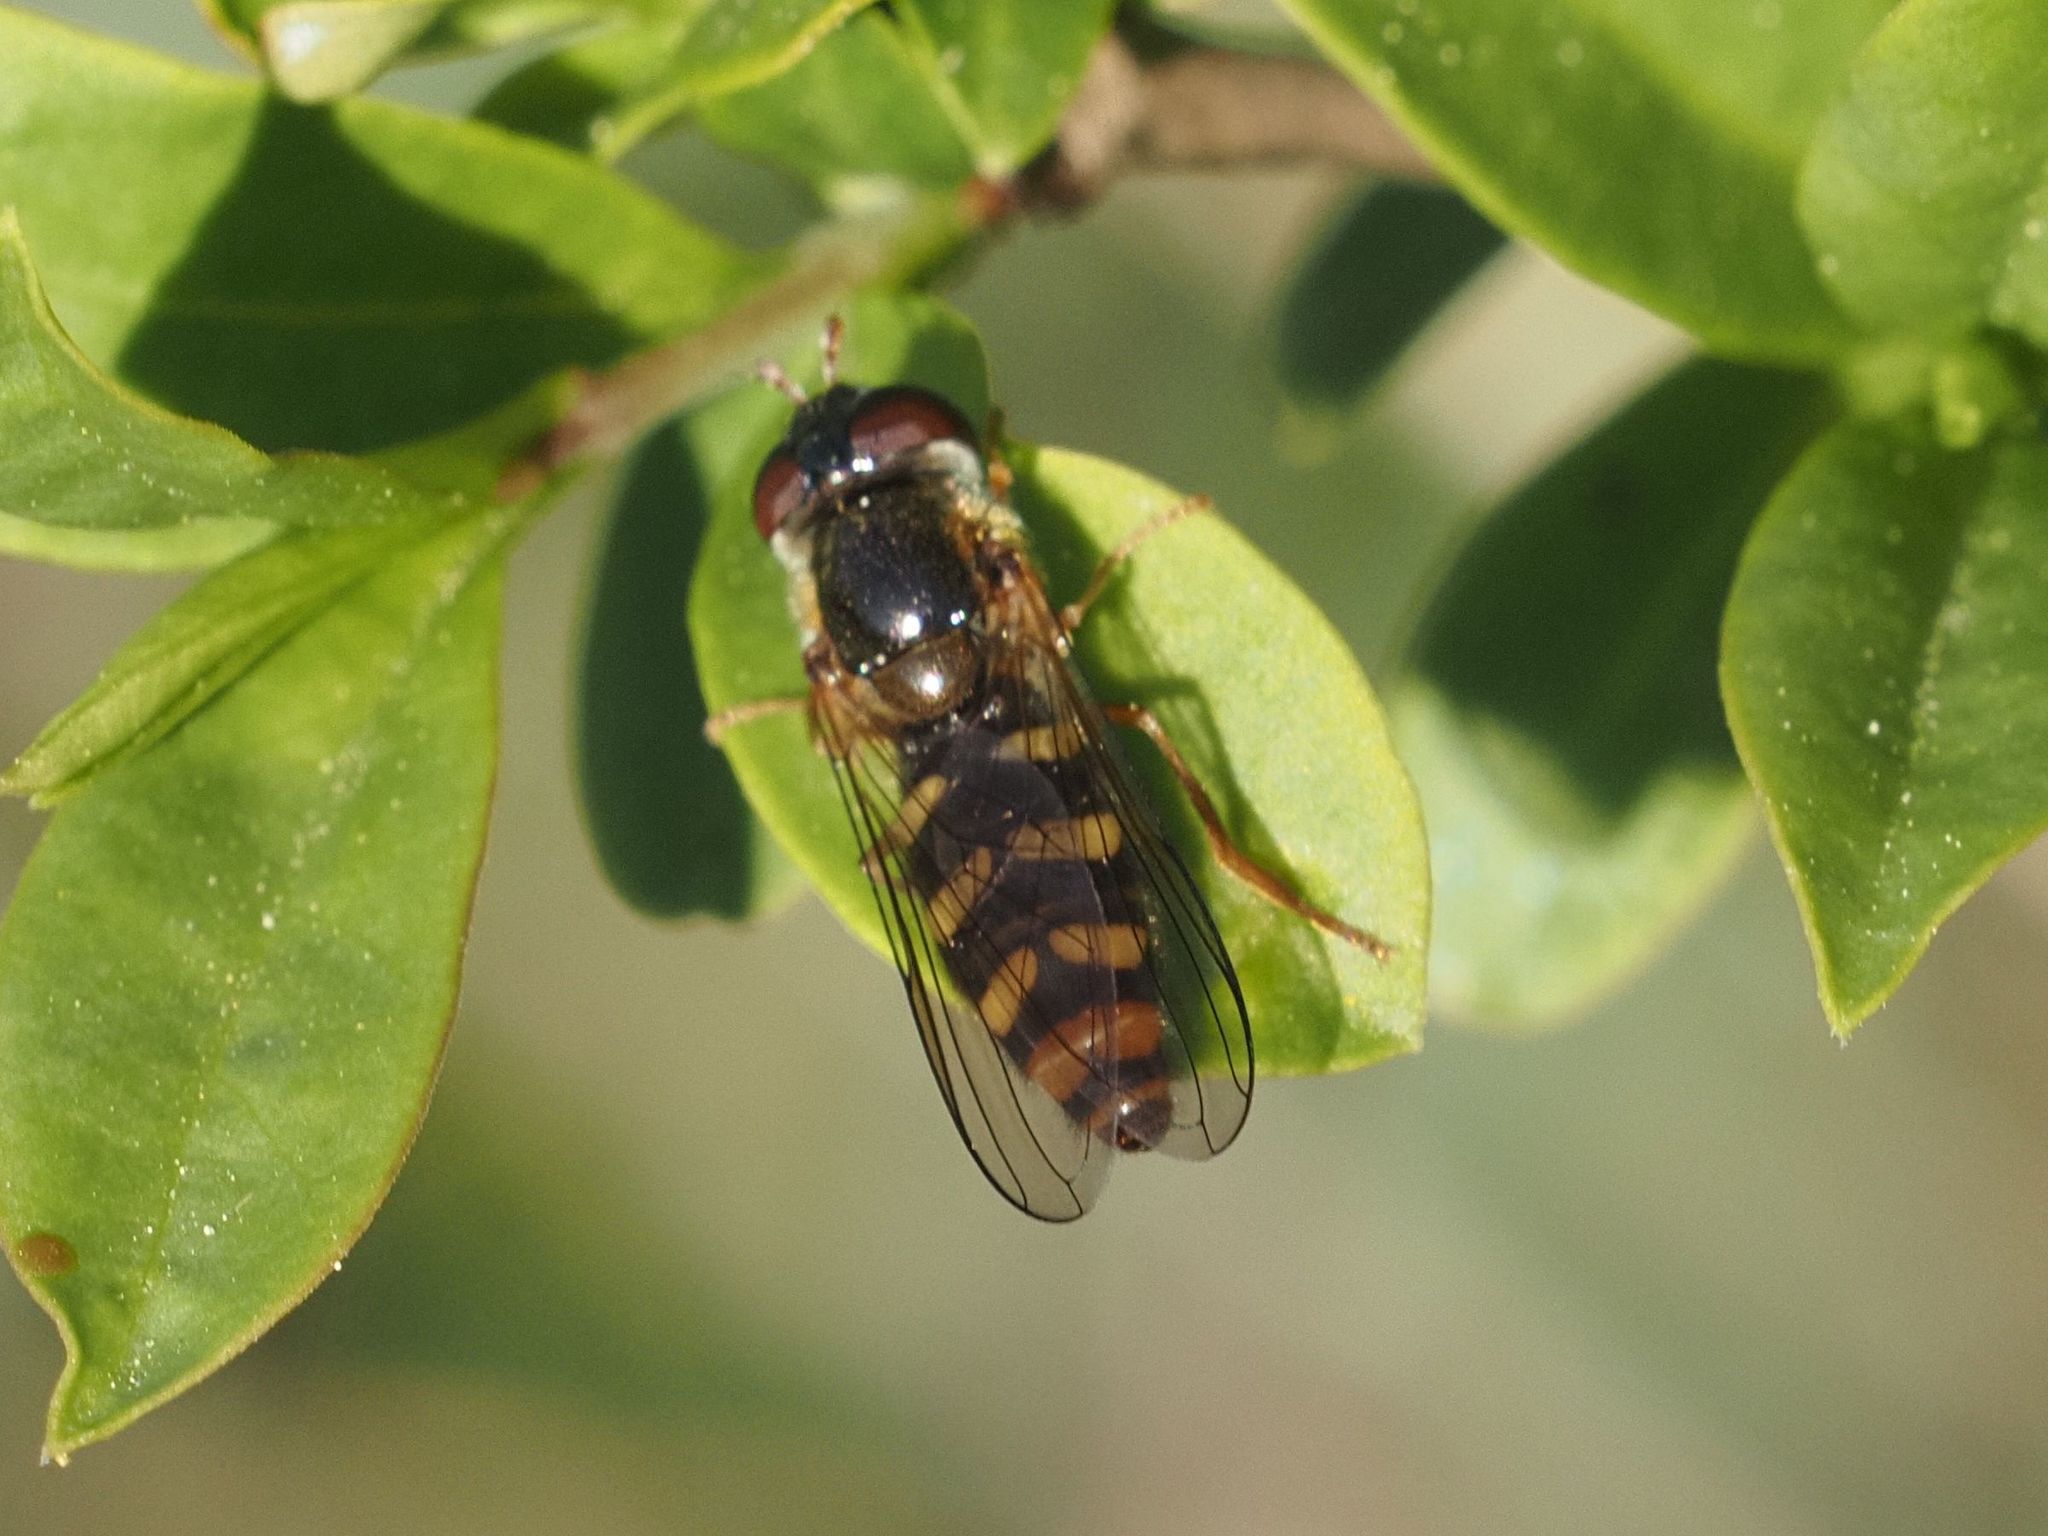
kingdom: Animalia
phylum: Arthropoda
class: Insecta
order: Diptera
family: Syrphidae
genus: Epistrophella
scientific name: Epistrophella euchromus
